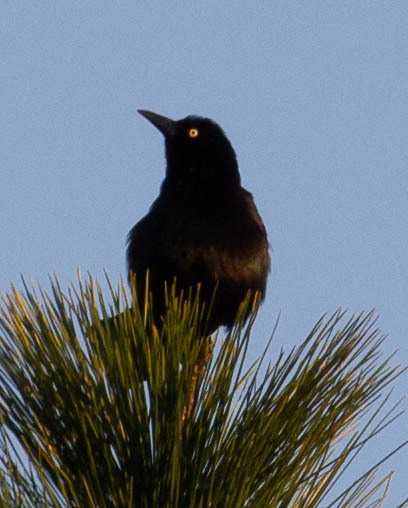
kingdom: Animalia
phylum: Chordata
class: Aves
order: Passeriformes
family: Icteridae
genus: Quiscalus
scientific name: Quiscalus major
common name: Boat-tailed grackle
